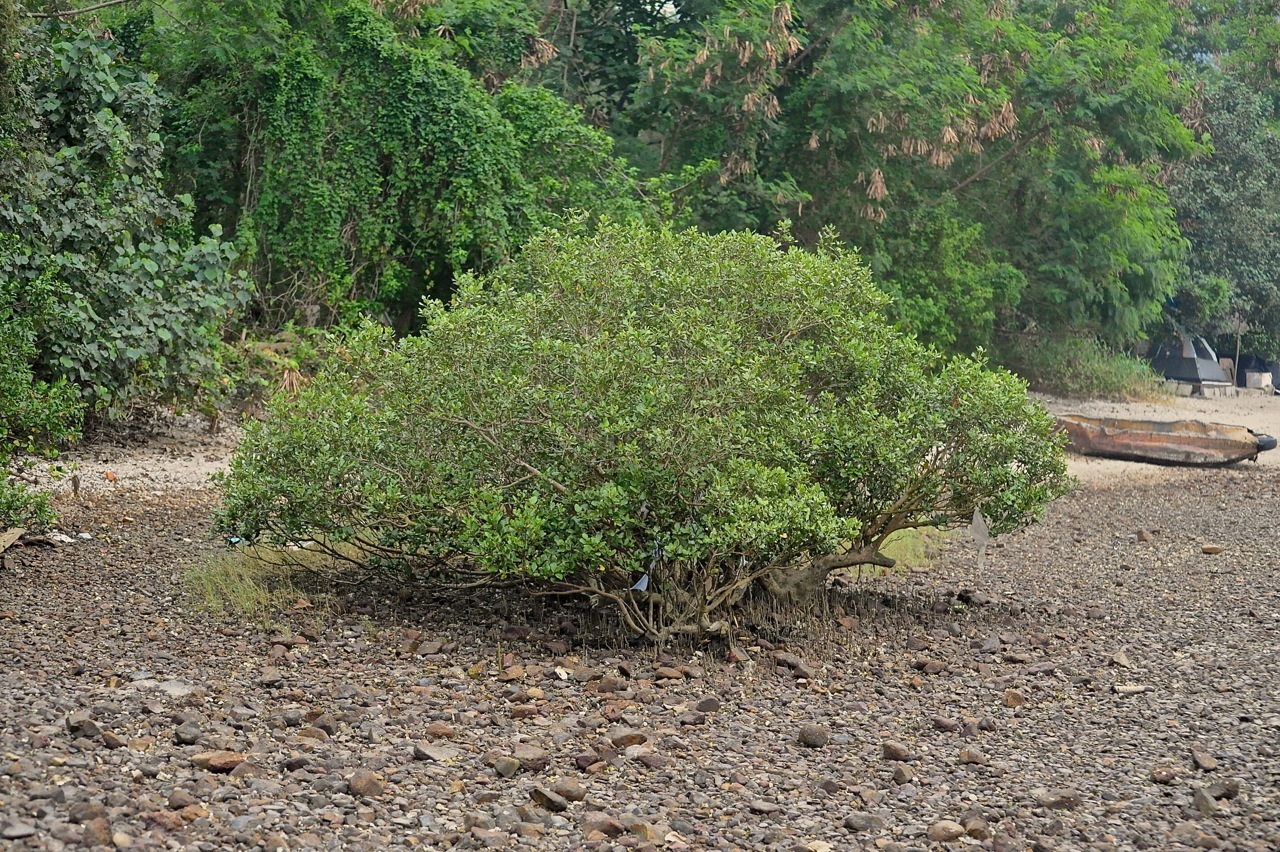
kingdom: Plantae
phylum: Tracheophyta
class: Magnoliopsida
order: Lamiales
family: Acanthaceae
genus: Avicennia
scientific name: Avicennia marina
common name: Gray mangrove
